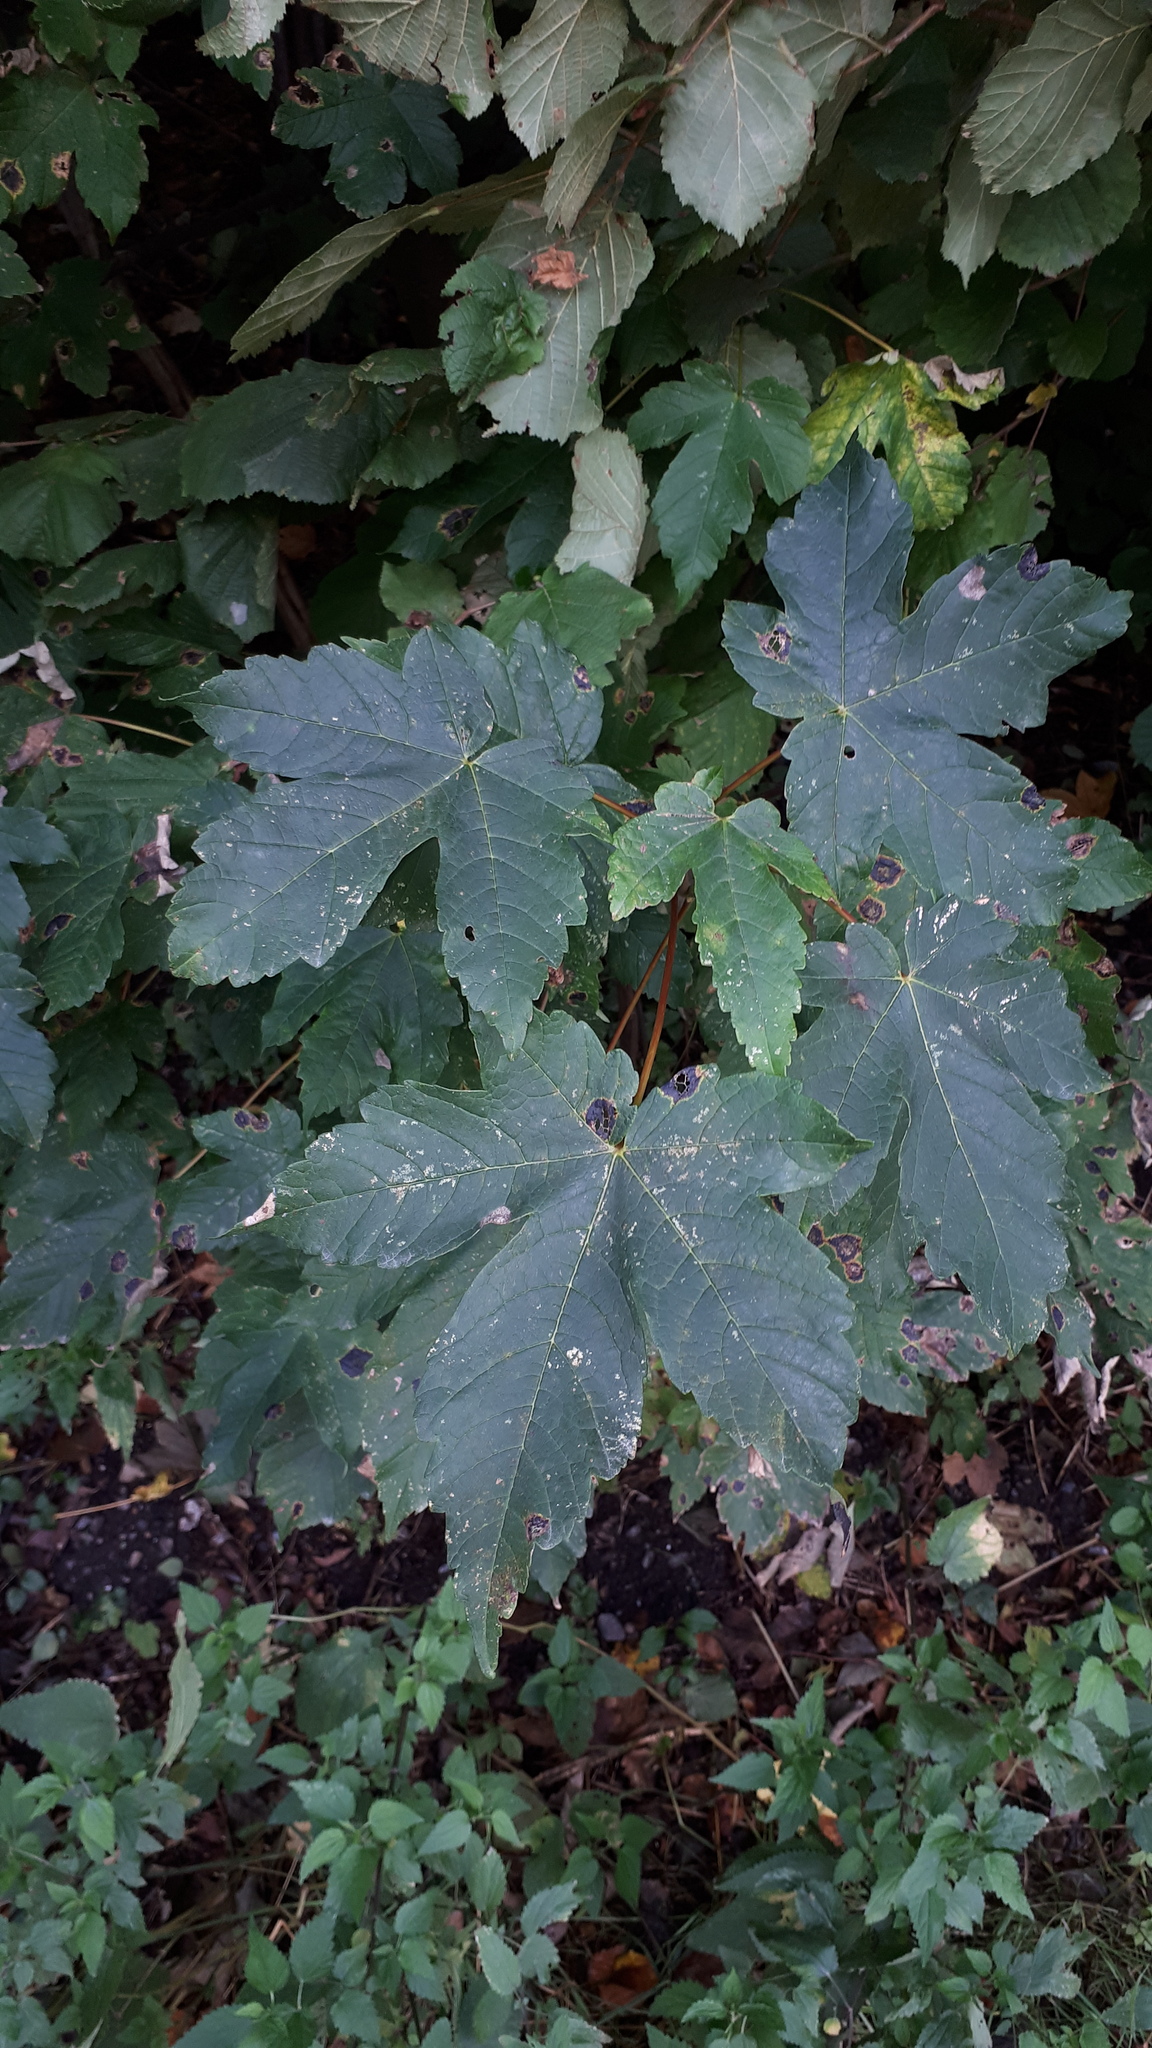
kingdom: Plantae
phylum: Tracheophyta
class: Magnoliopsida
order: Sapindales
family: Sapindaceae
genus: Acer
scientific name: Acer pseudoplatanus
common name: Sycamore
